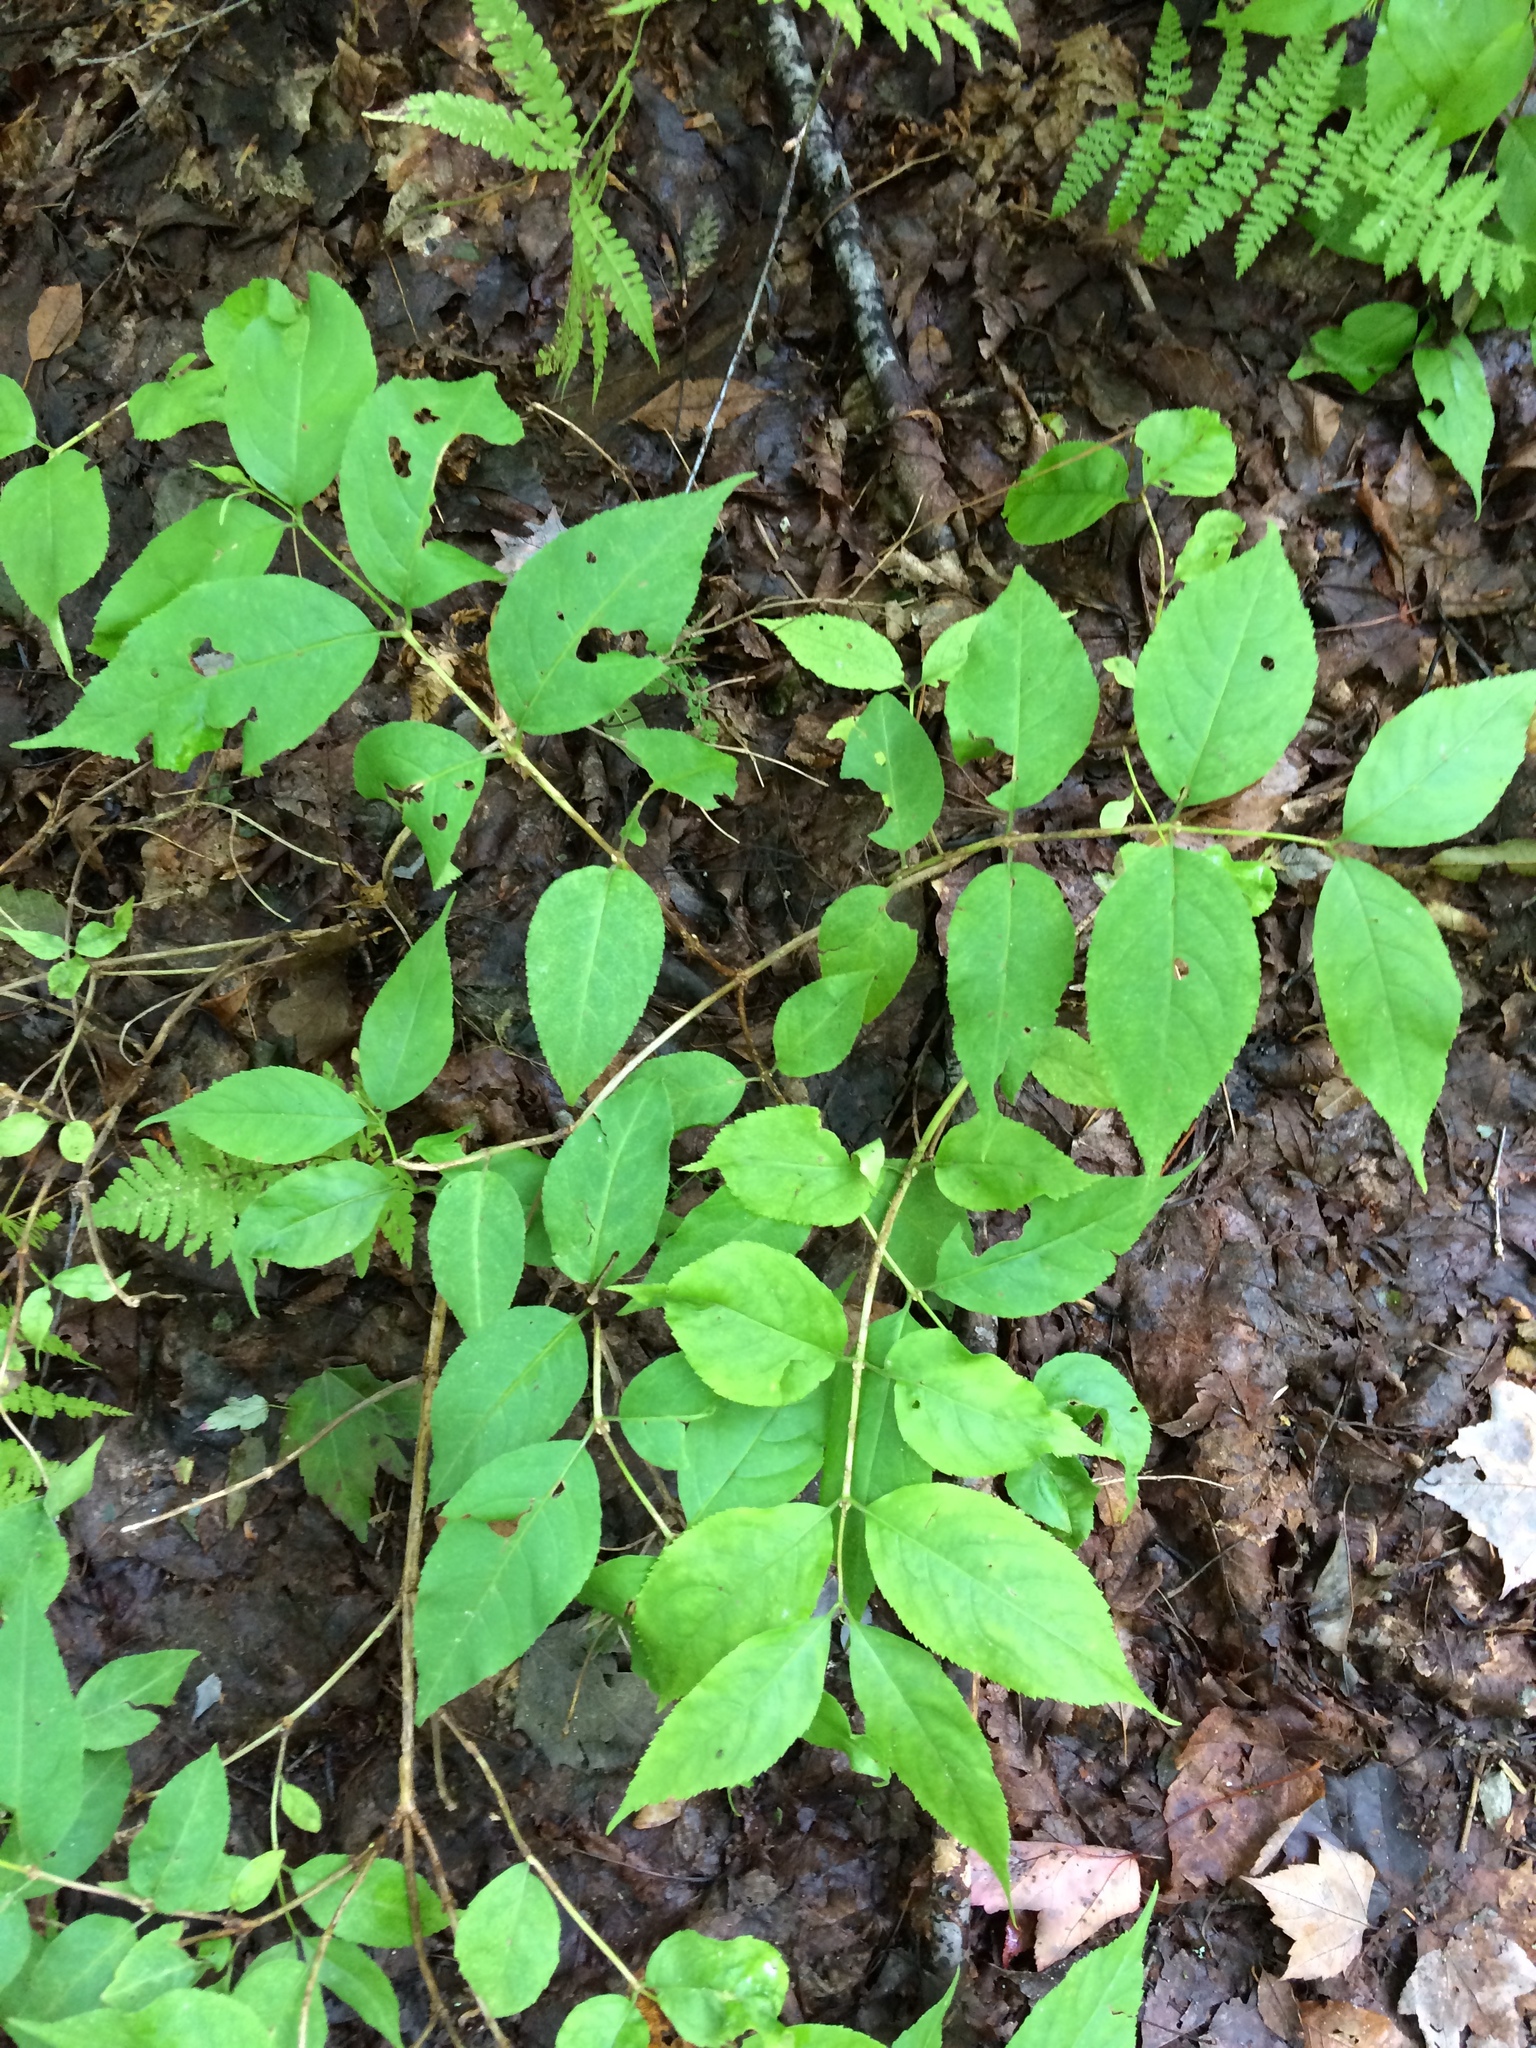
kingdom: Plantae
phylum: Tracheophyta
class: Magnoliopsida
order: Dipsacales
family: Caprifoliaceae
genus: Diervilla
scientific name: Diervilla lonicera
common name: Bush-honeysuckle
